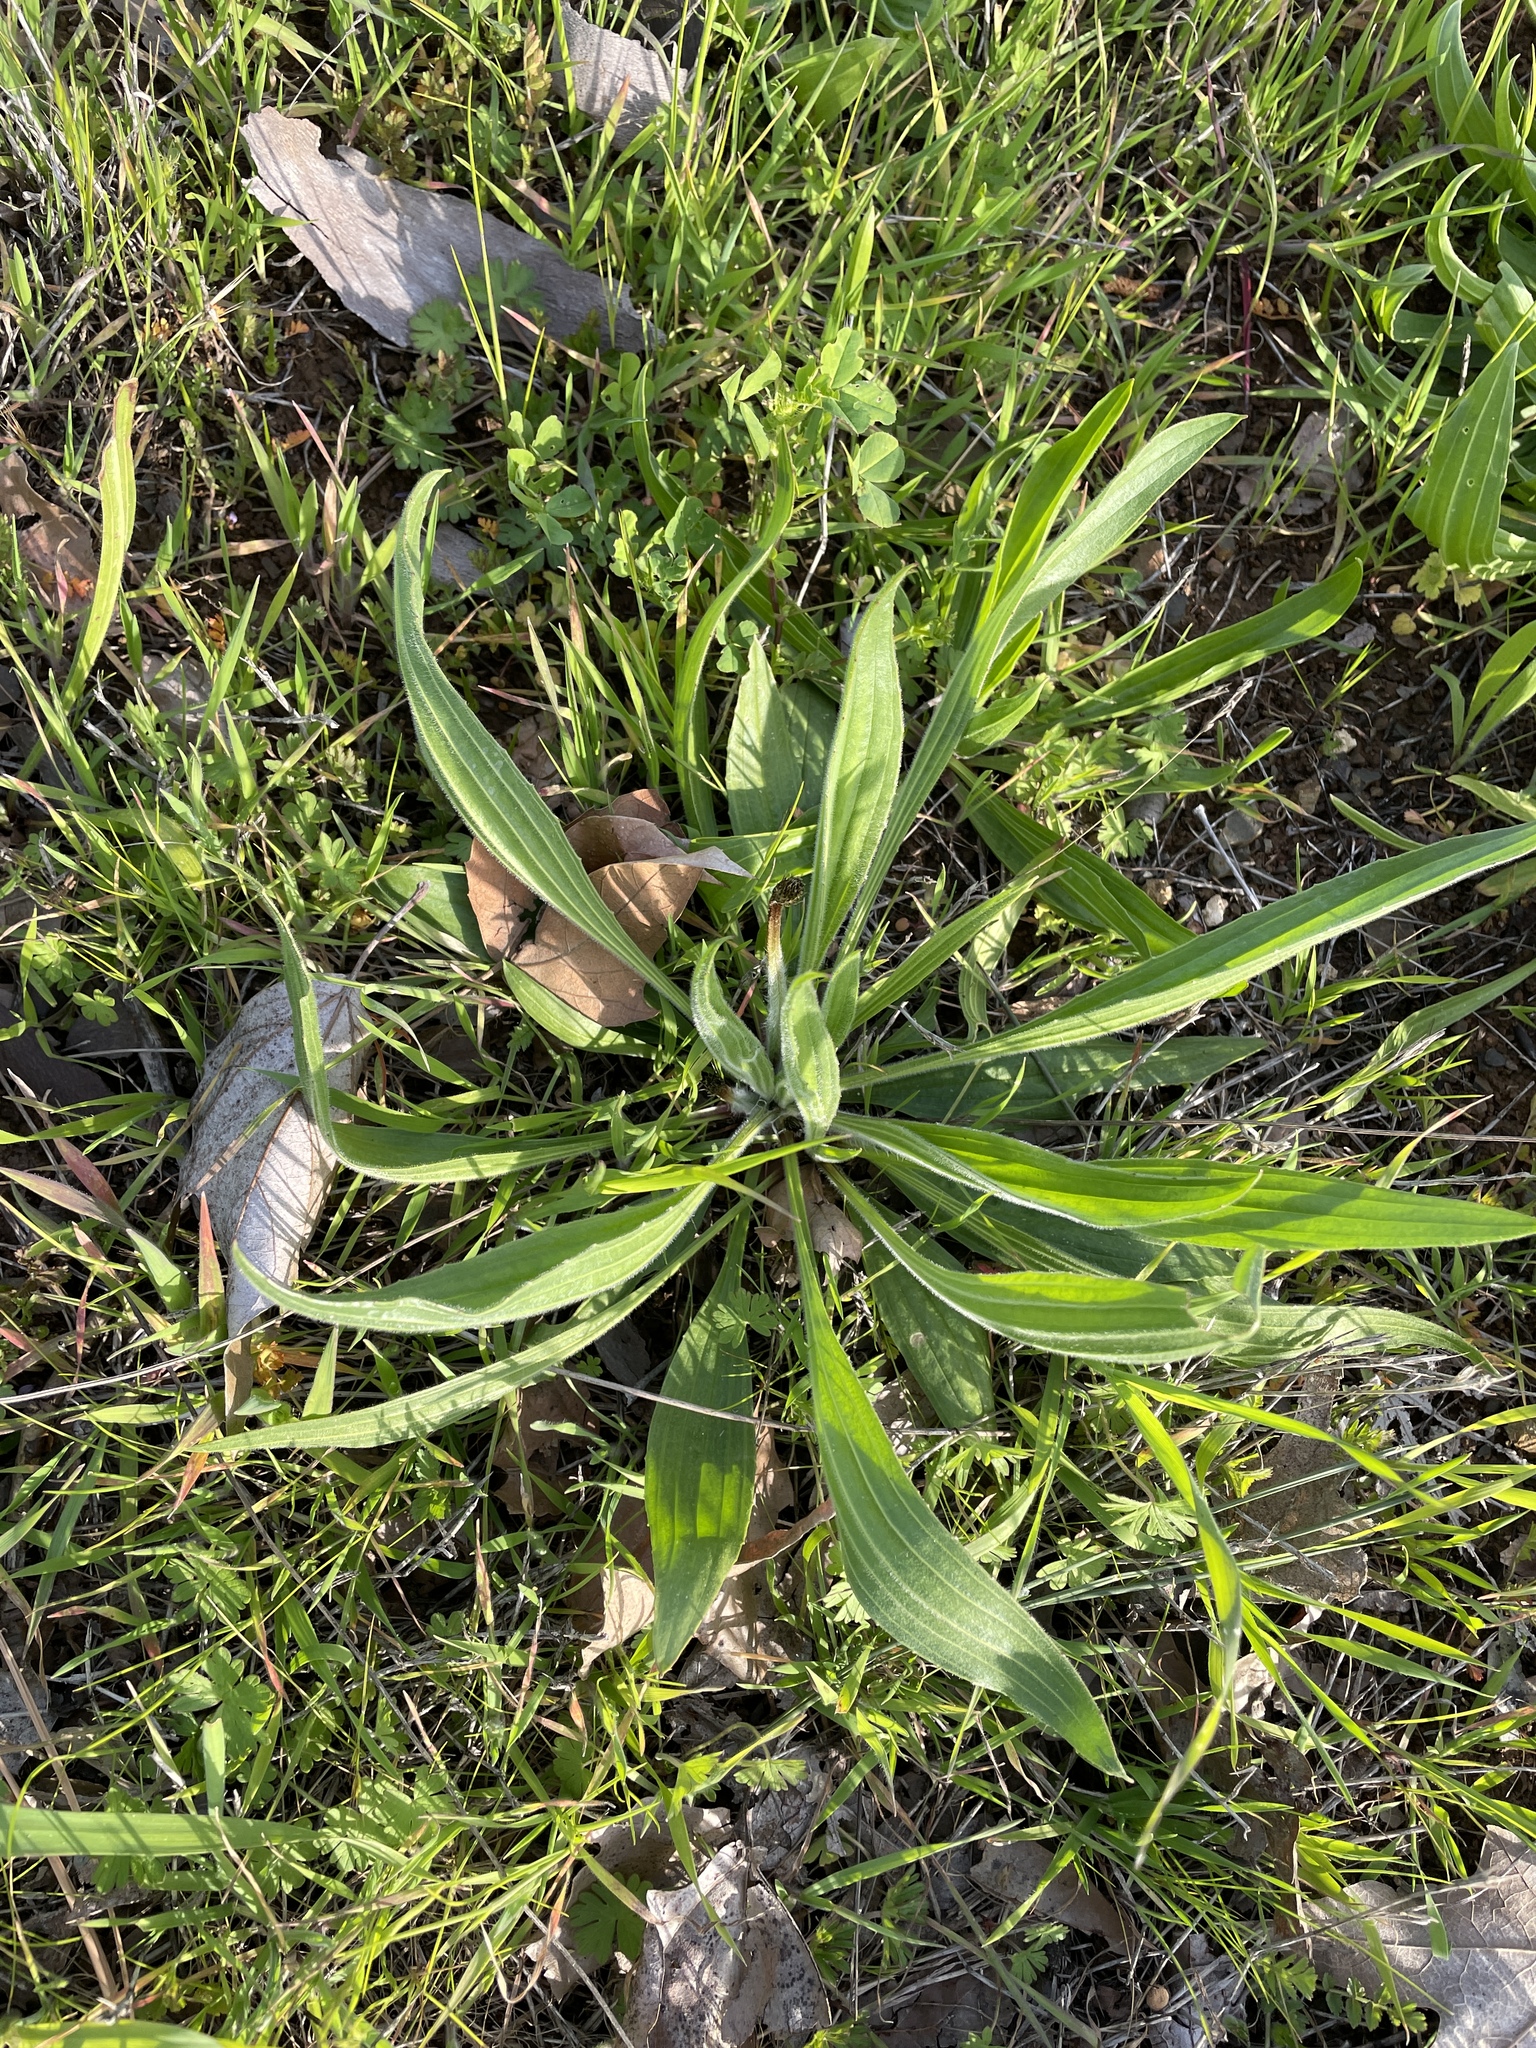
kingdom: Plantae
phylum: Tracheophyta
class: Magnoliopsida
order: Lamiales
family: Plantaginaceae
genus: Plantago
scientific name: Plantago lanceolata
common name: Ribwort plantain
